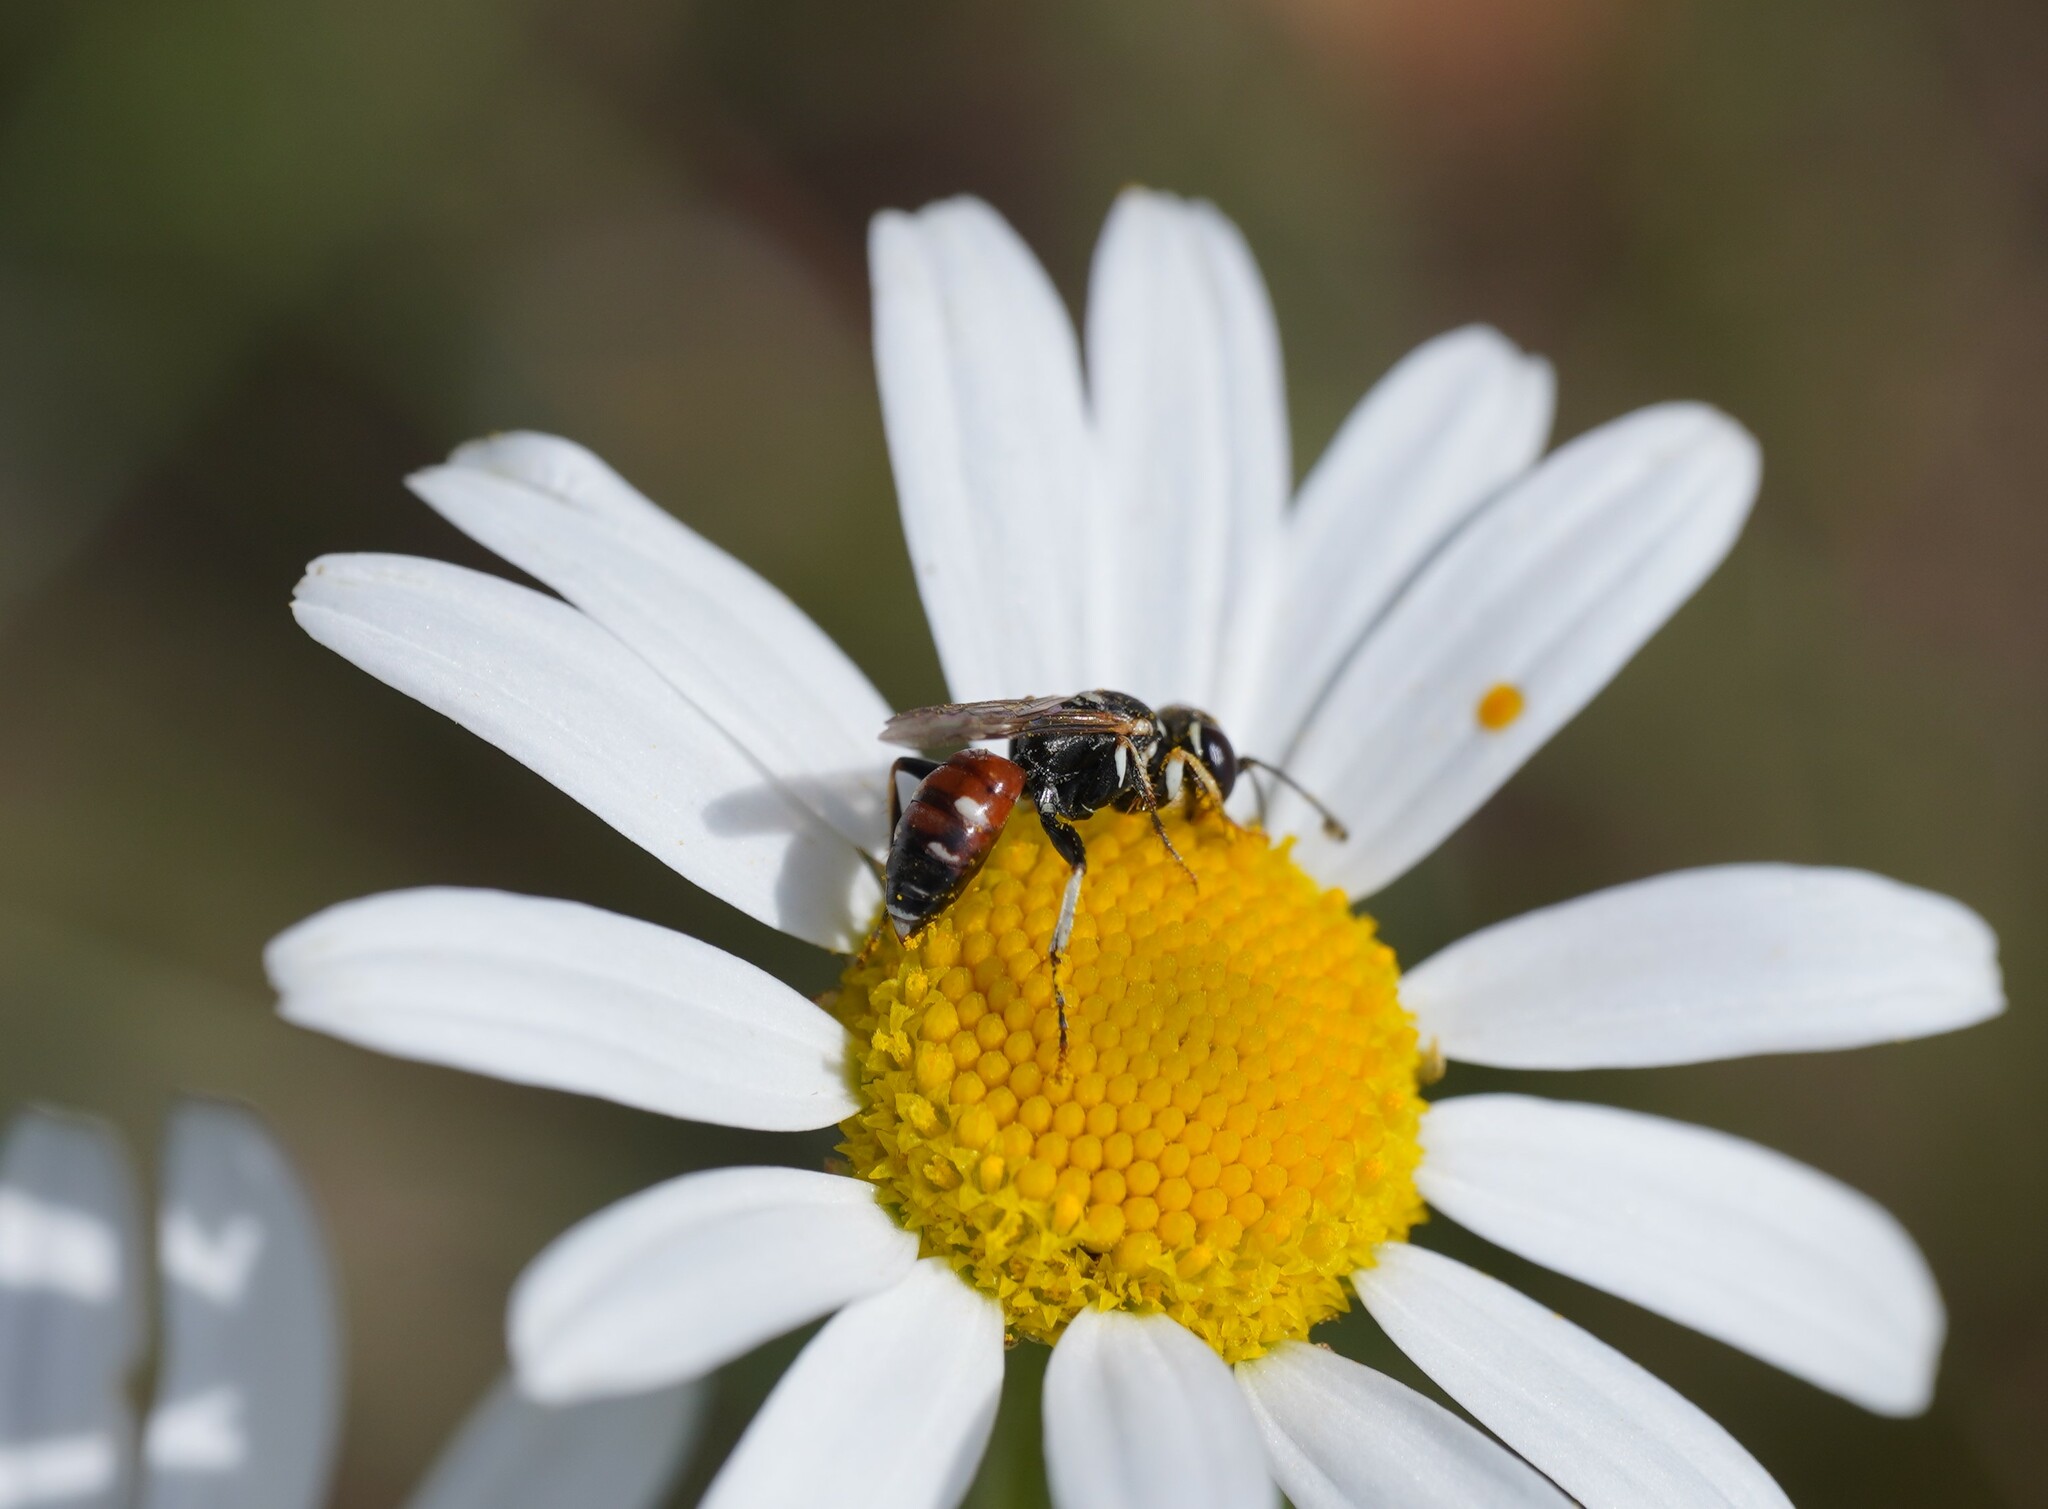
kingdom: Animalia
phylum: Arthropoda
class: Insecta
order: Hymenoptera
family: Crabronidae
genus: Dinetus
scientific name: Dinetus pictus
